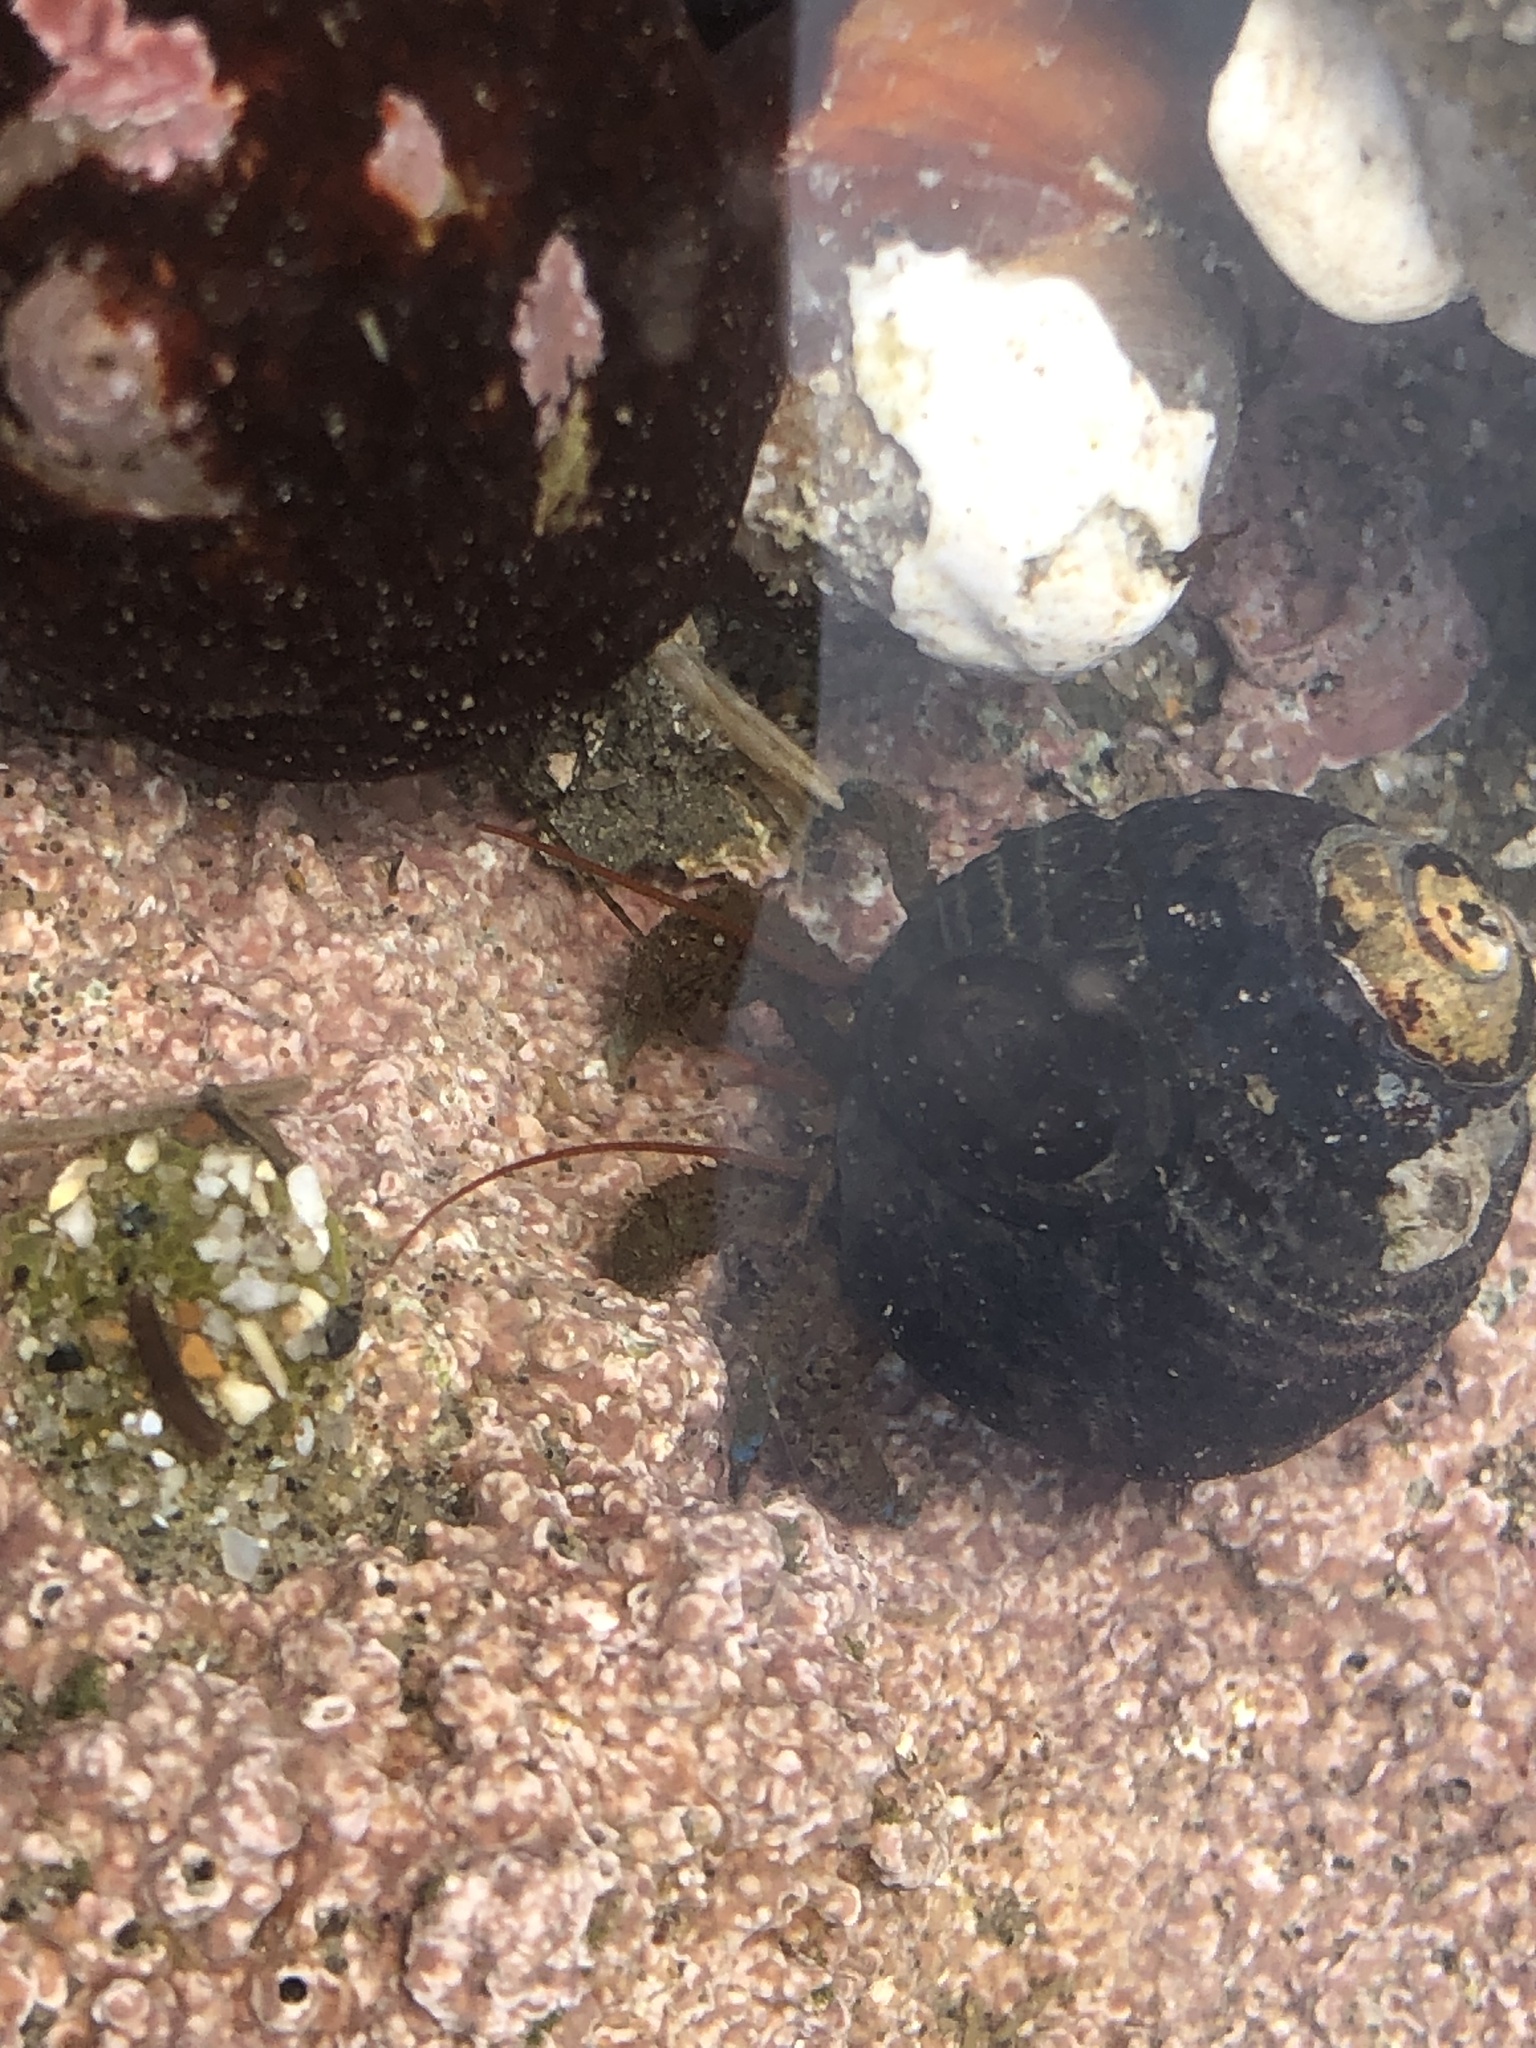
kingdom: Animalia
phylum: Arthropoda
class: Malacostraca
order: Decapoda
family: Paguridae
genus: Pagurus
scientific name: Pagurus samuelis
